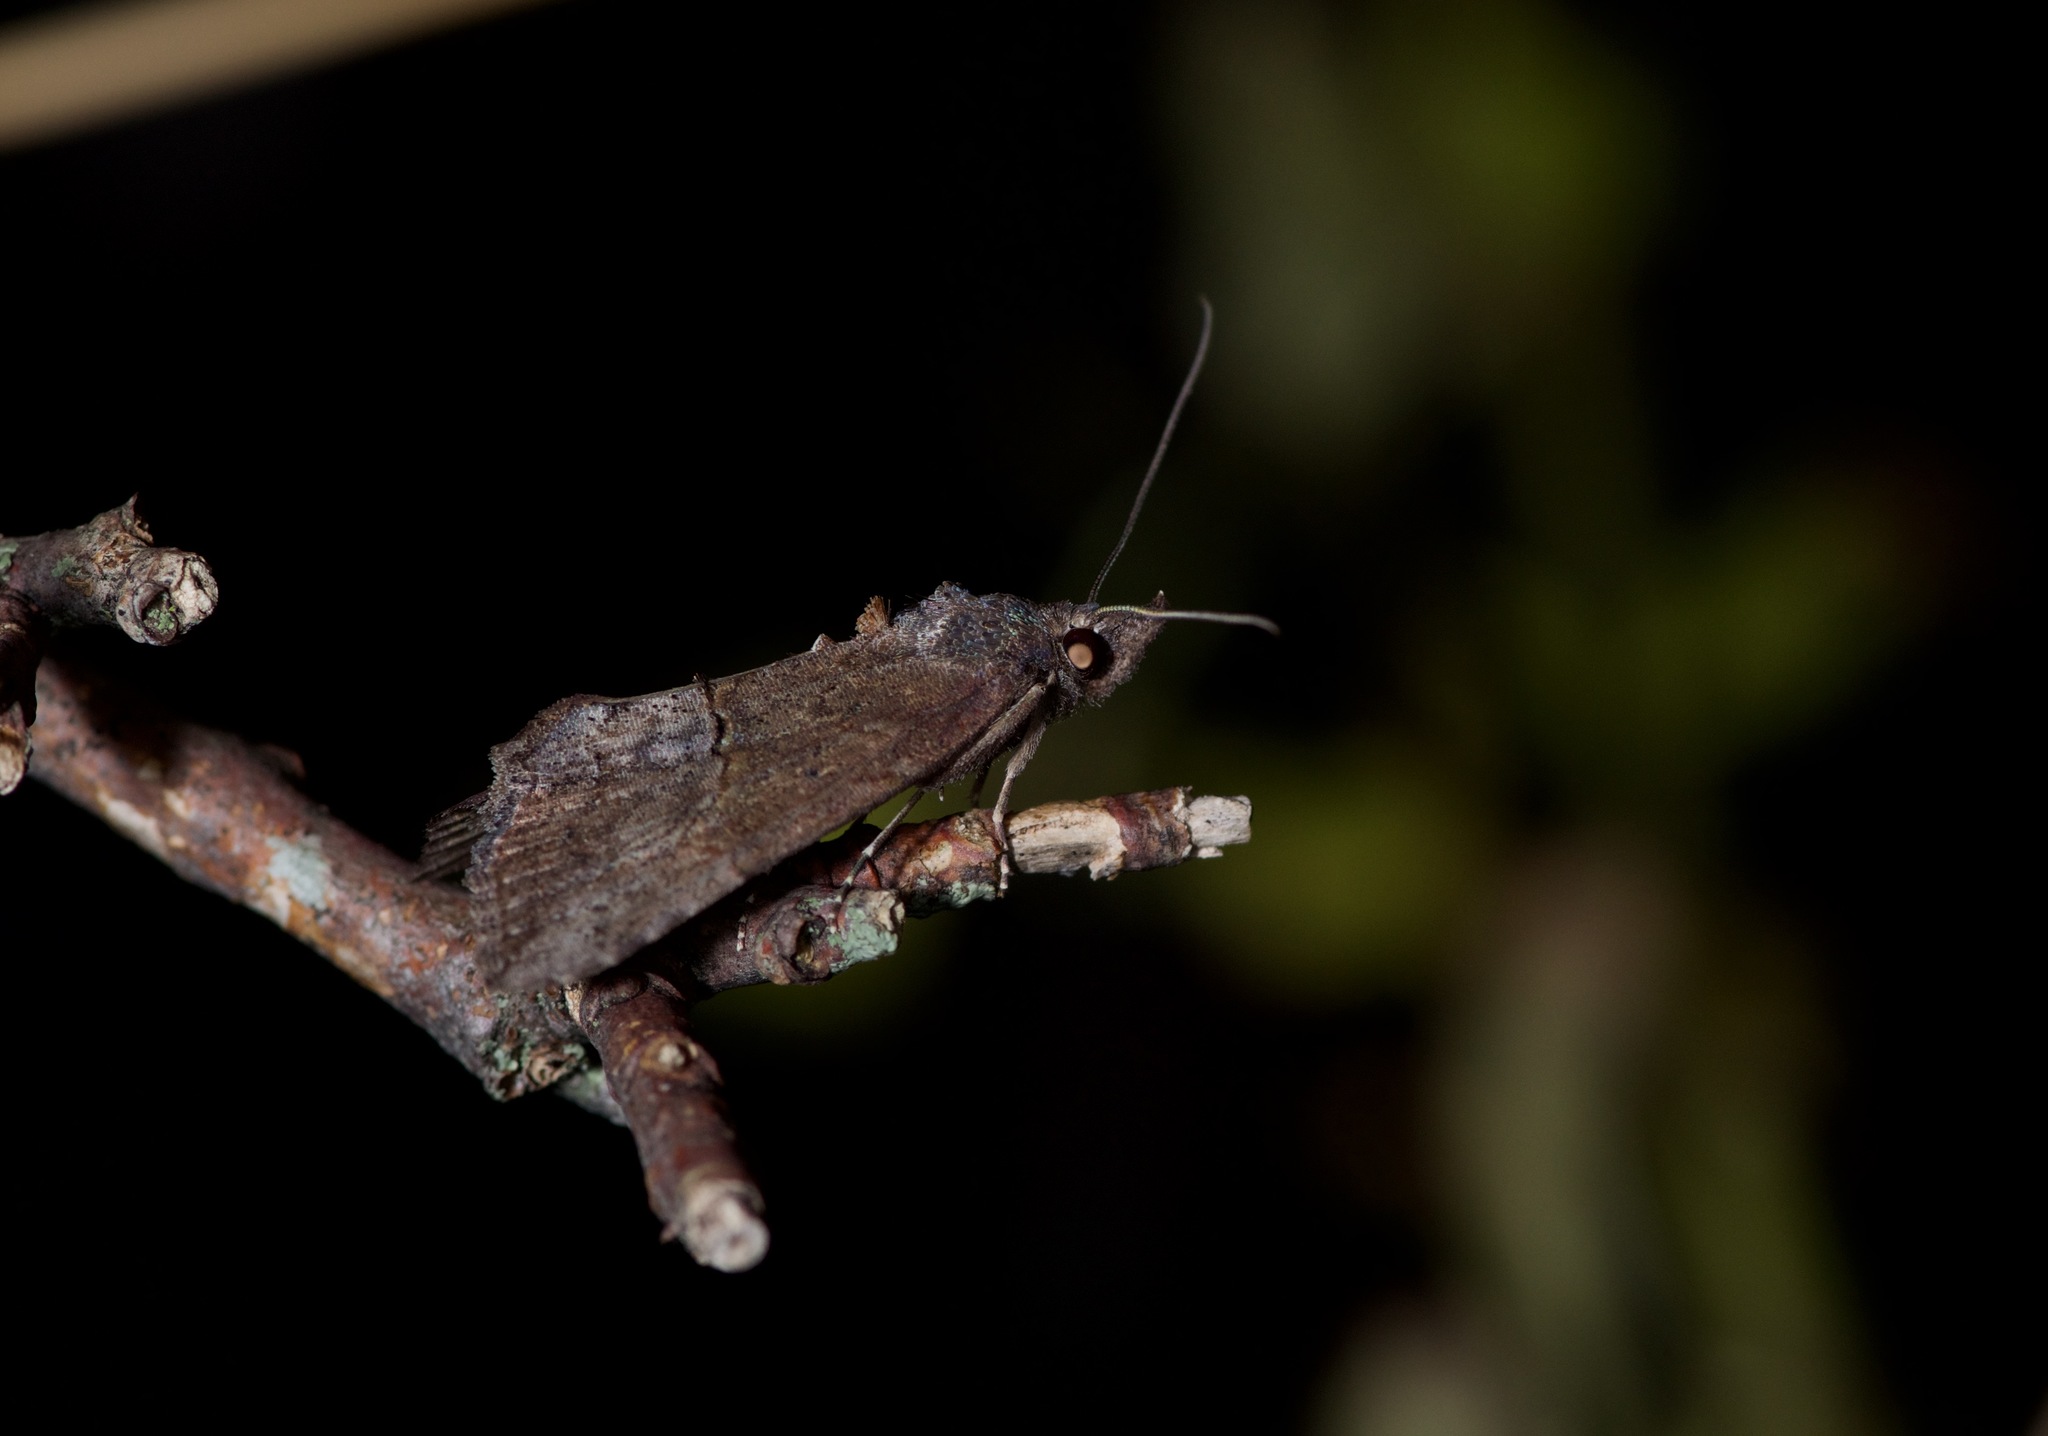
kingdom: Animalia
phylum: Arthropoda
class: Insecta
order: Lepidoptera
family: Erebidae
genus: Hypena
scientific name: Hypena scabra
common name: Green cloverworm
